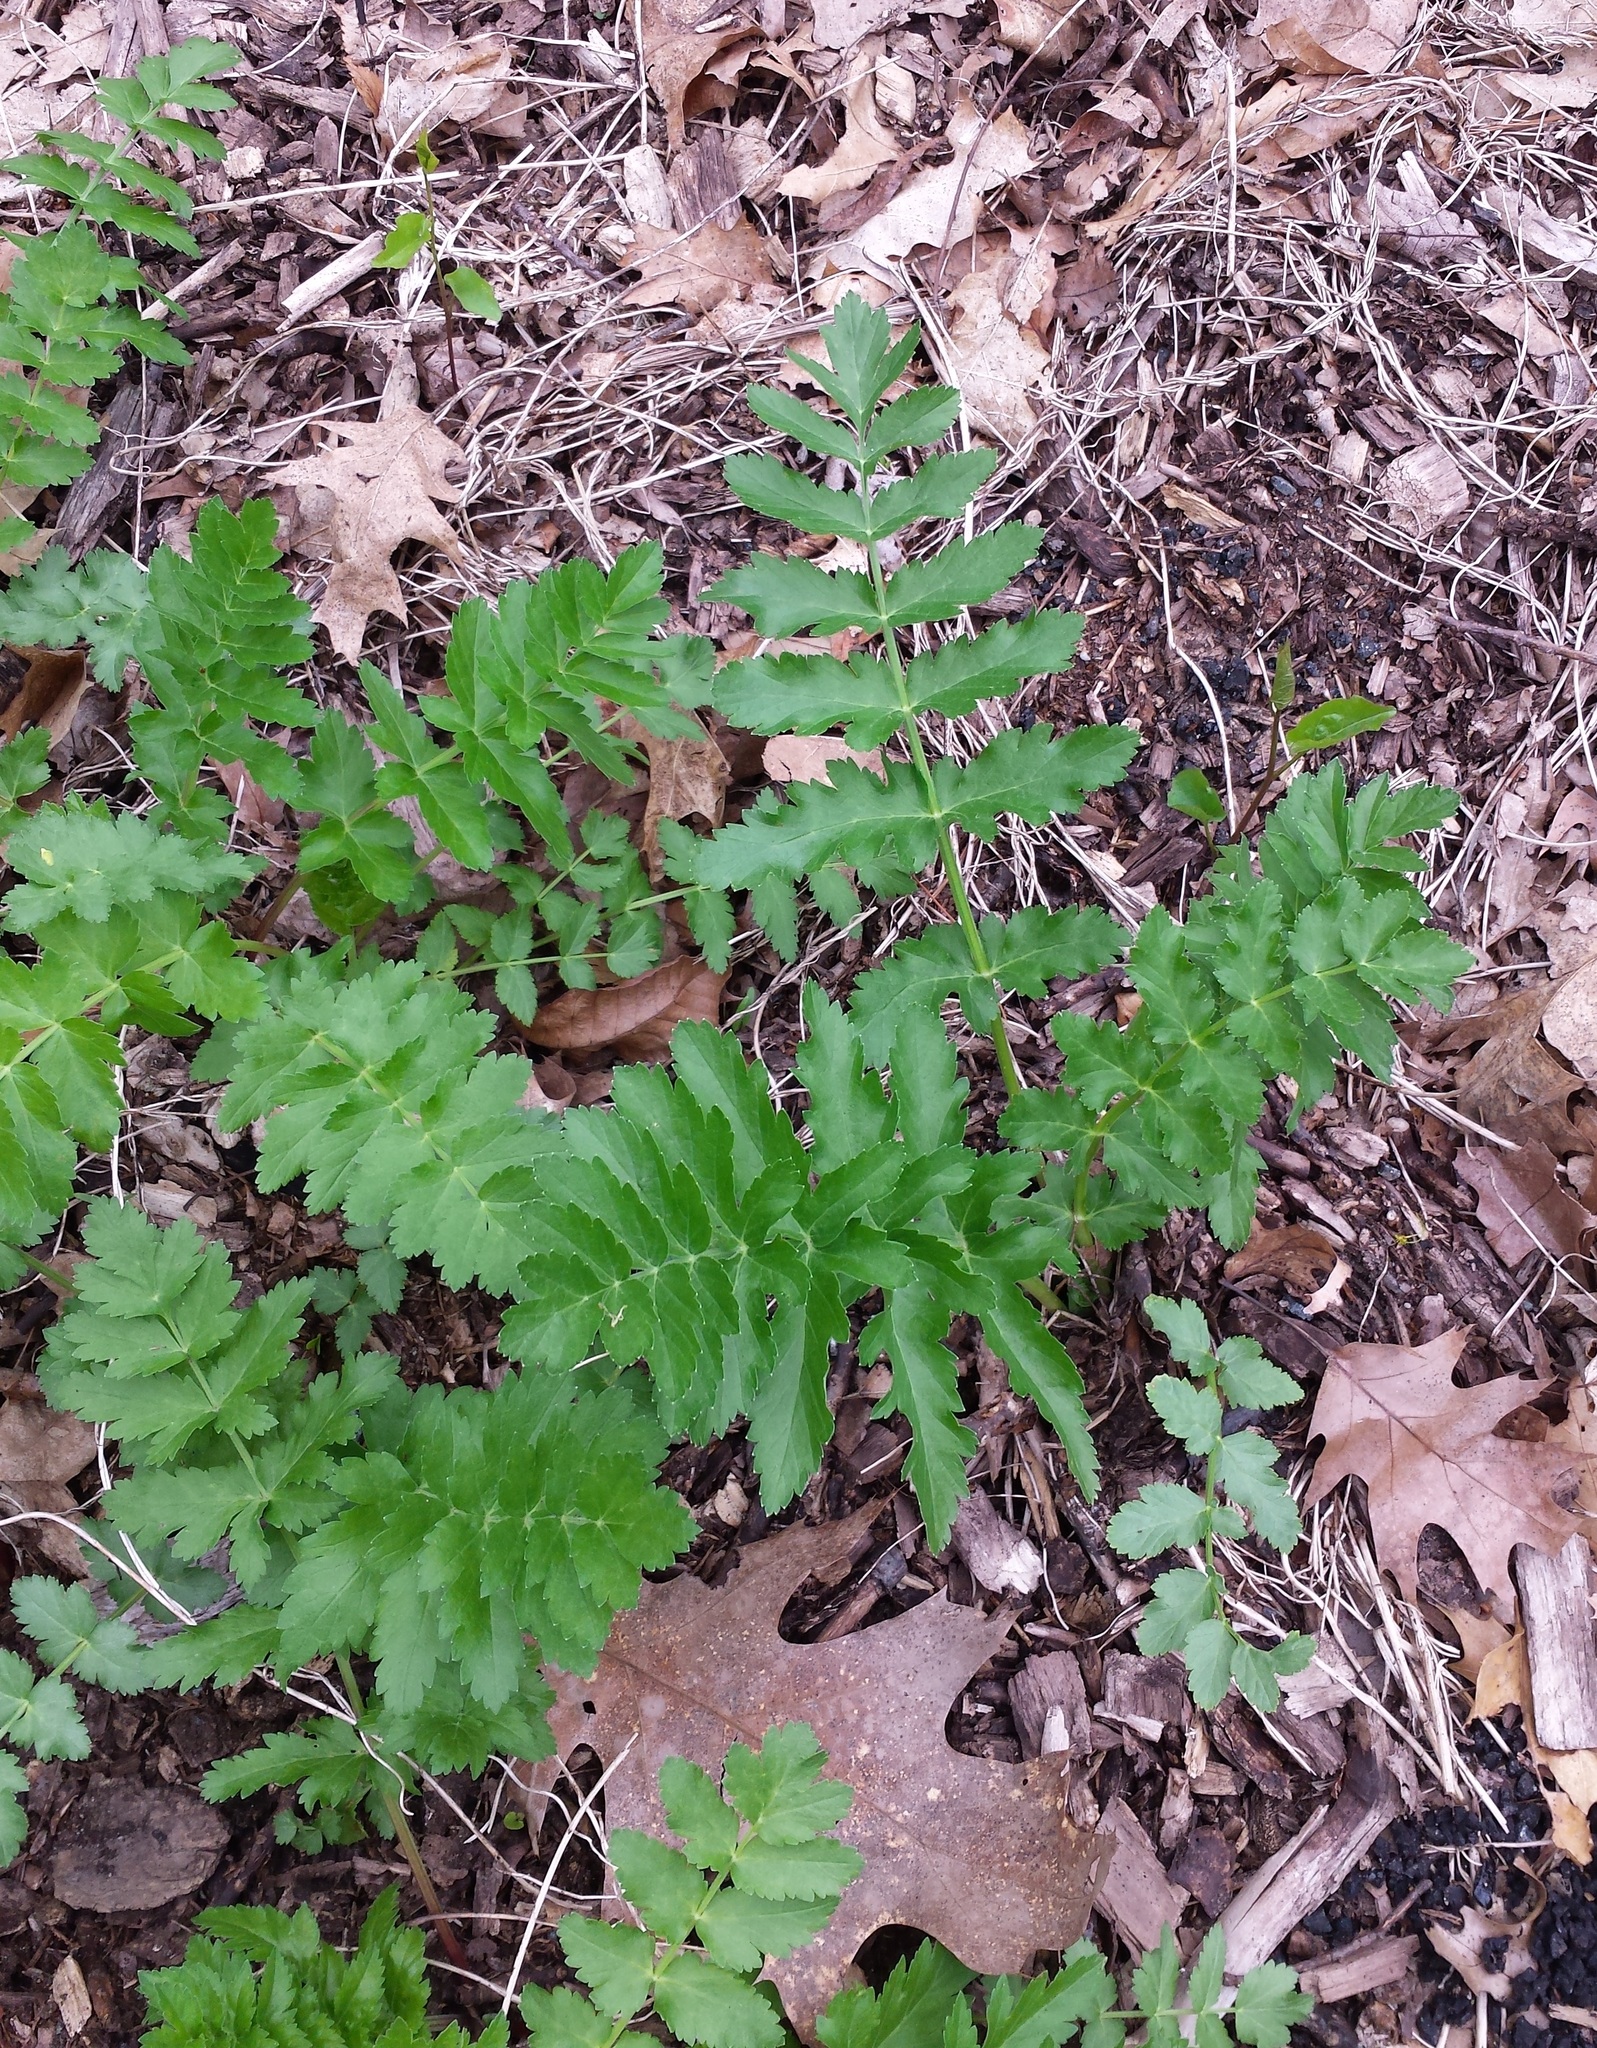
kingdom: Plantae
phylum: Tracheophyta
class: Magnoliopsida
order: Apiales
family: Apiaceae
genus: Pastinaca
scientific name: Pastinaca sativa
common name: Wild parsnip
